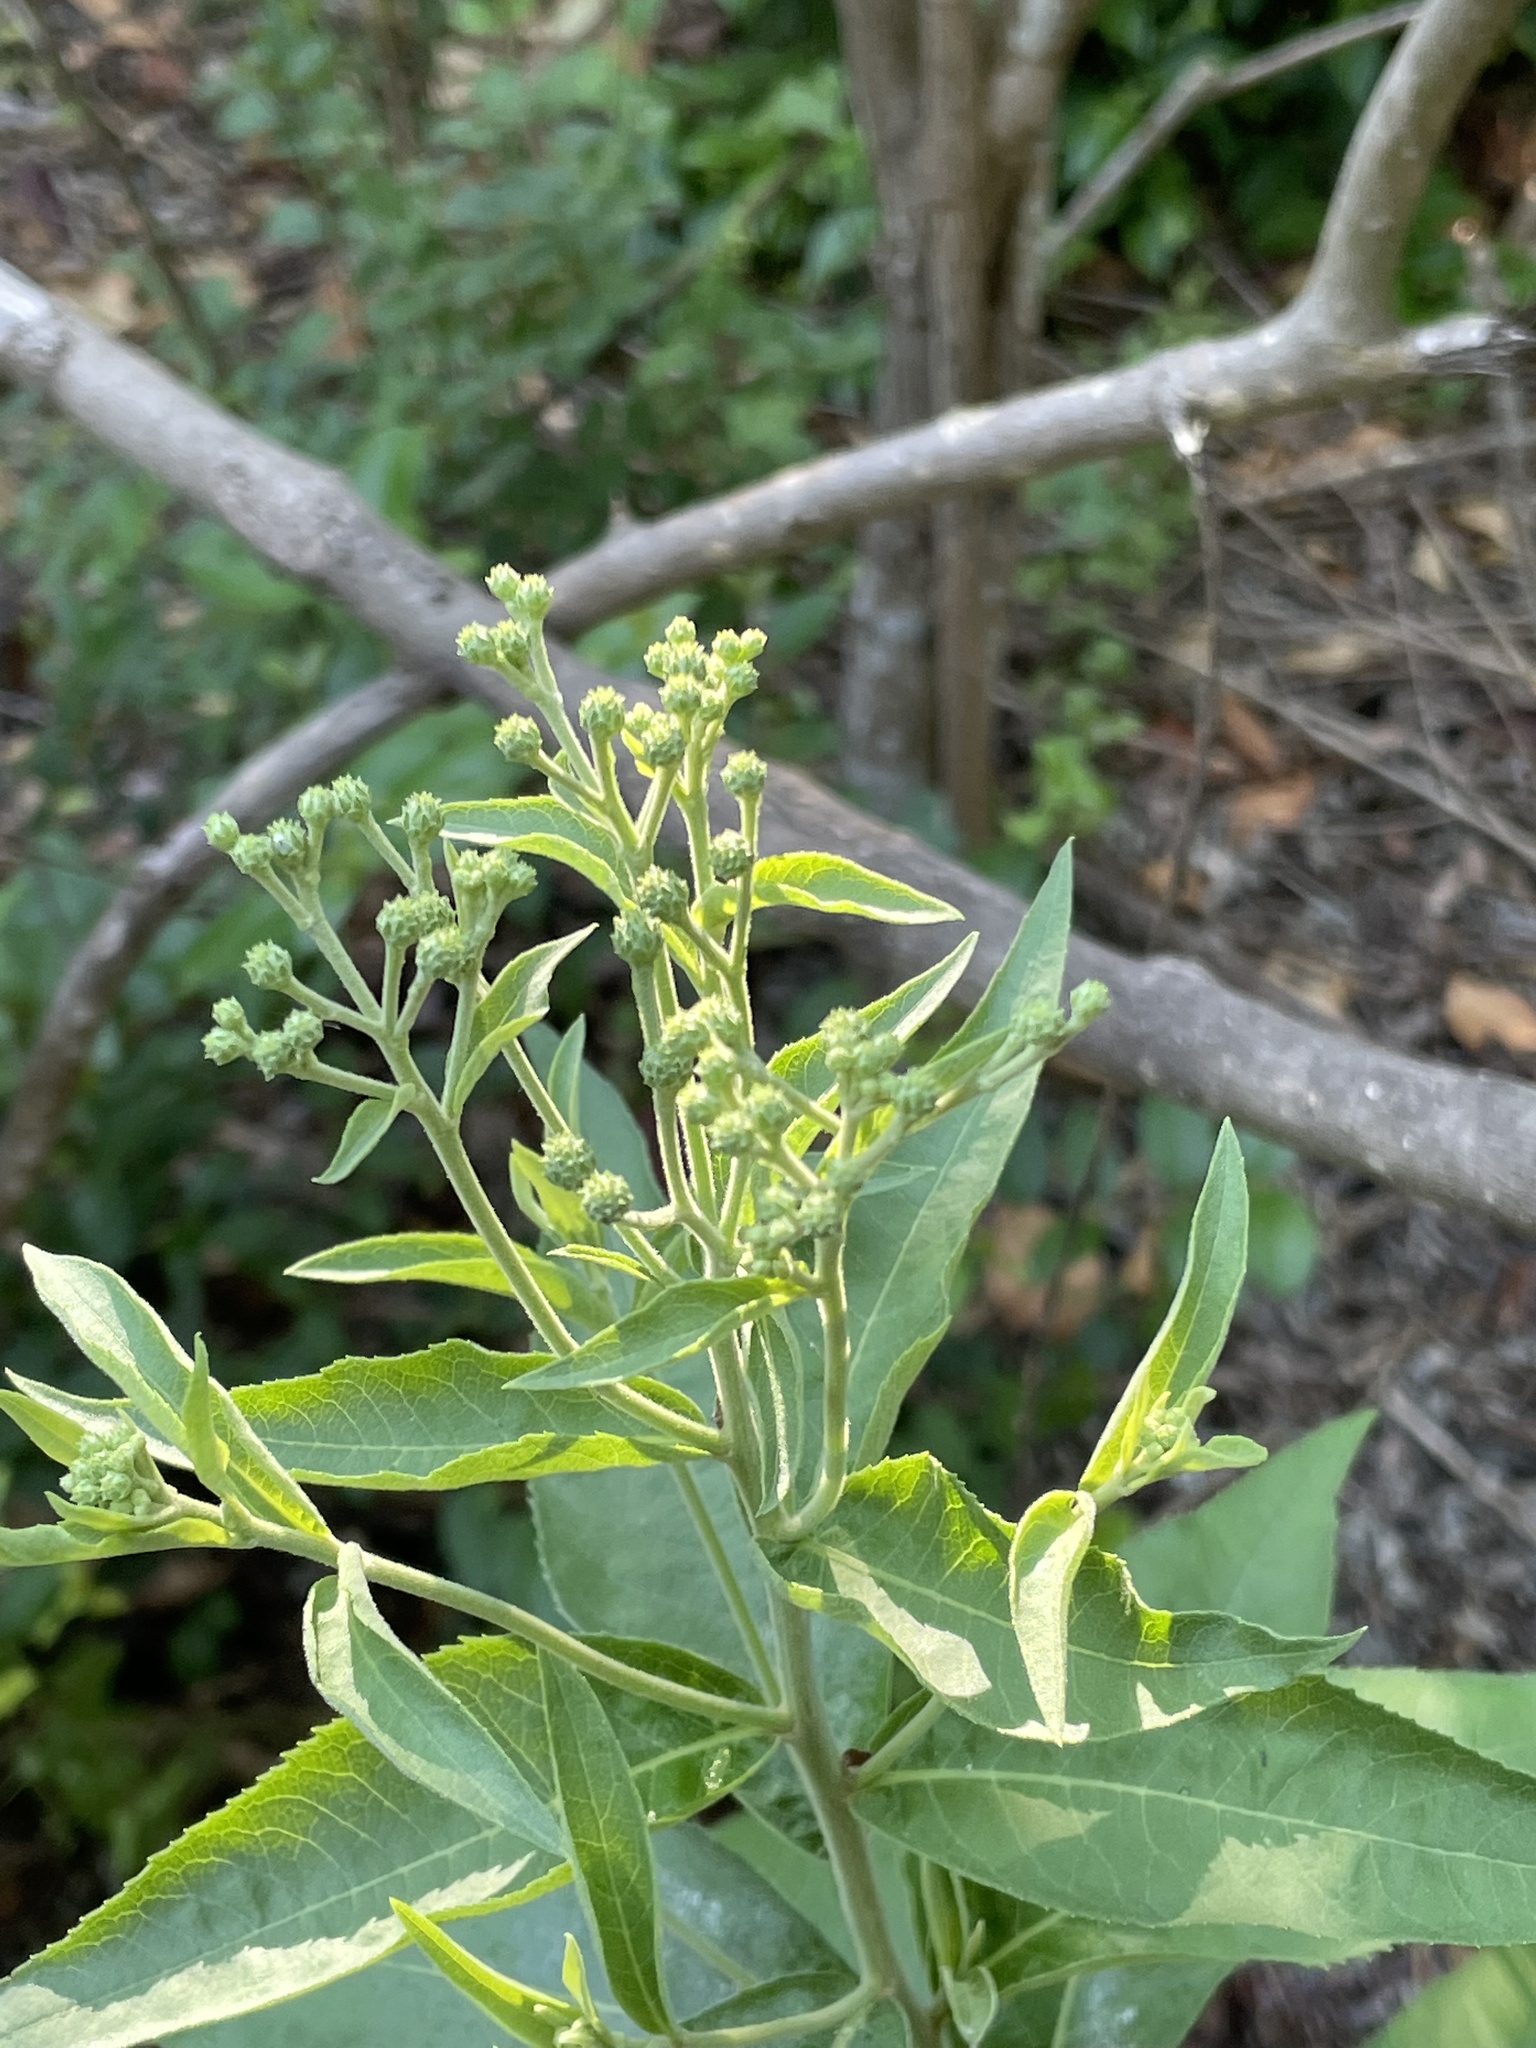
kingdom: Plantae
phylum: Tracheophyta
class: Magnoliopsida
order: Asterales
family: Asteraceae
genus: Verbesina
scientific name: Verbesina virginica
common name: Frostweed
